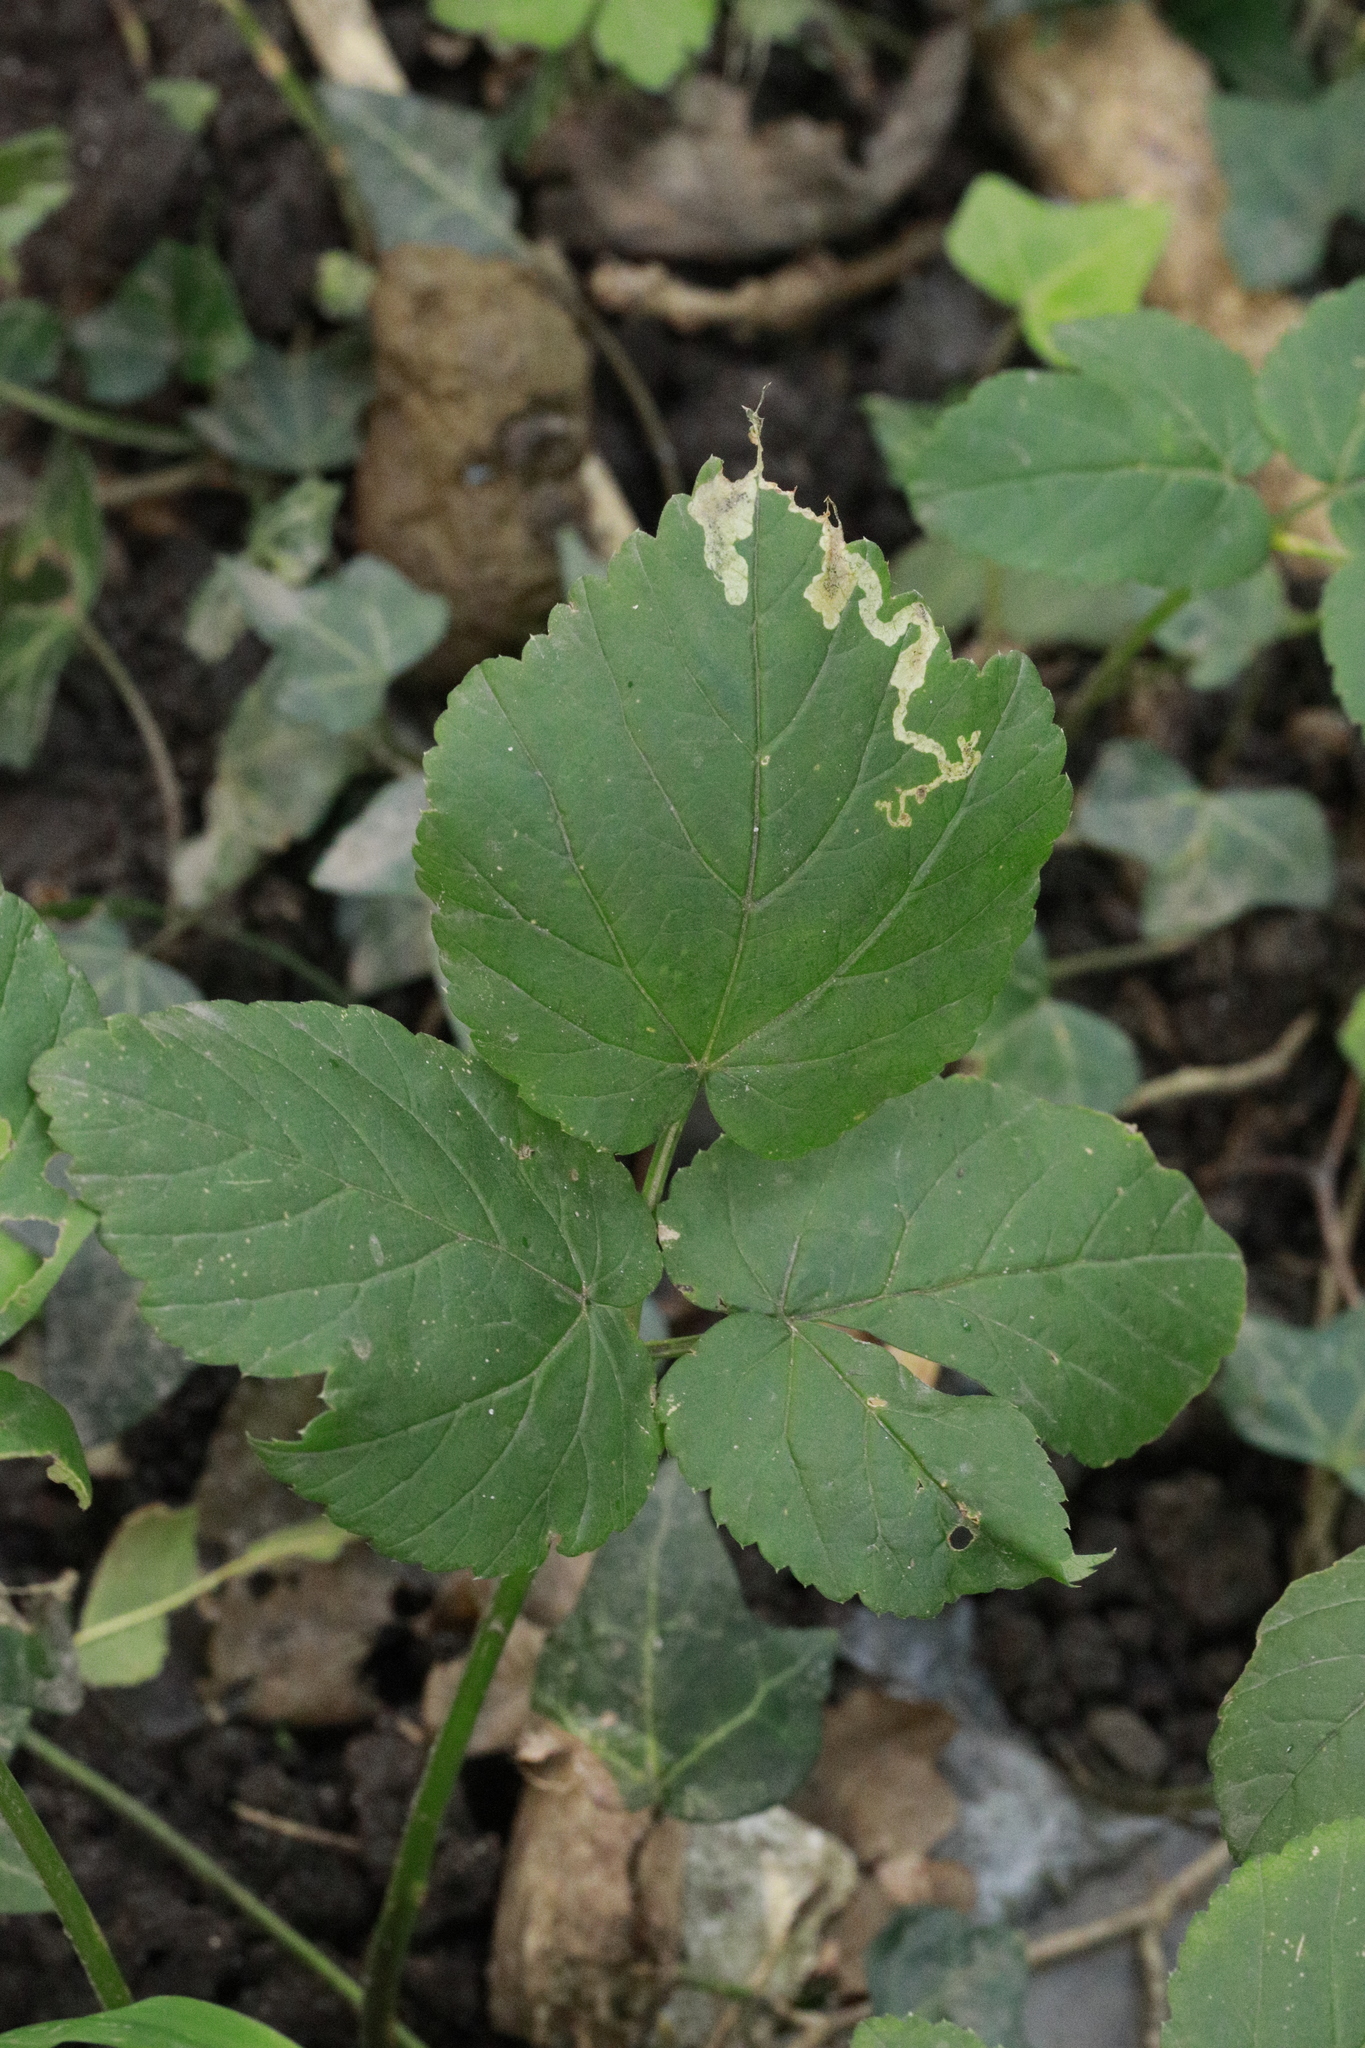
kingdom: Animalia
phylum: Arthropoda
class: Insecta
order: Lepidoptera
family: Nepticulidae
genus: Stigmella
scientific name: Stigmella aurella
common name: Golden pigmy
